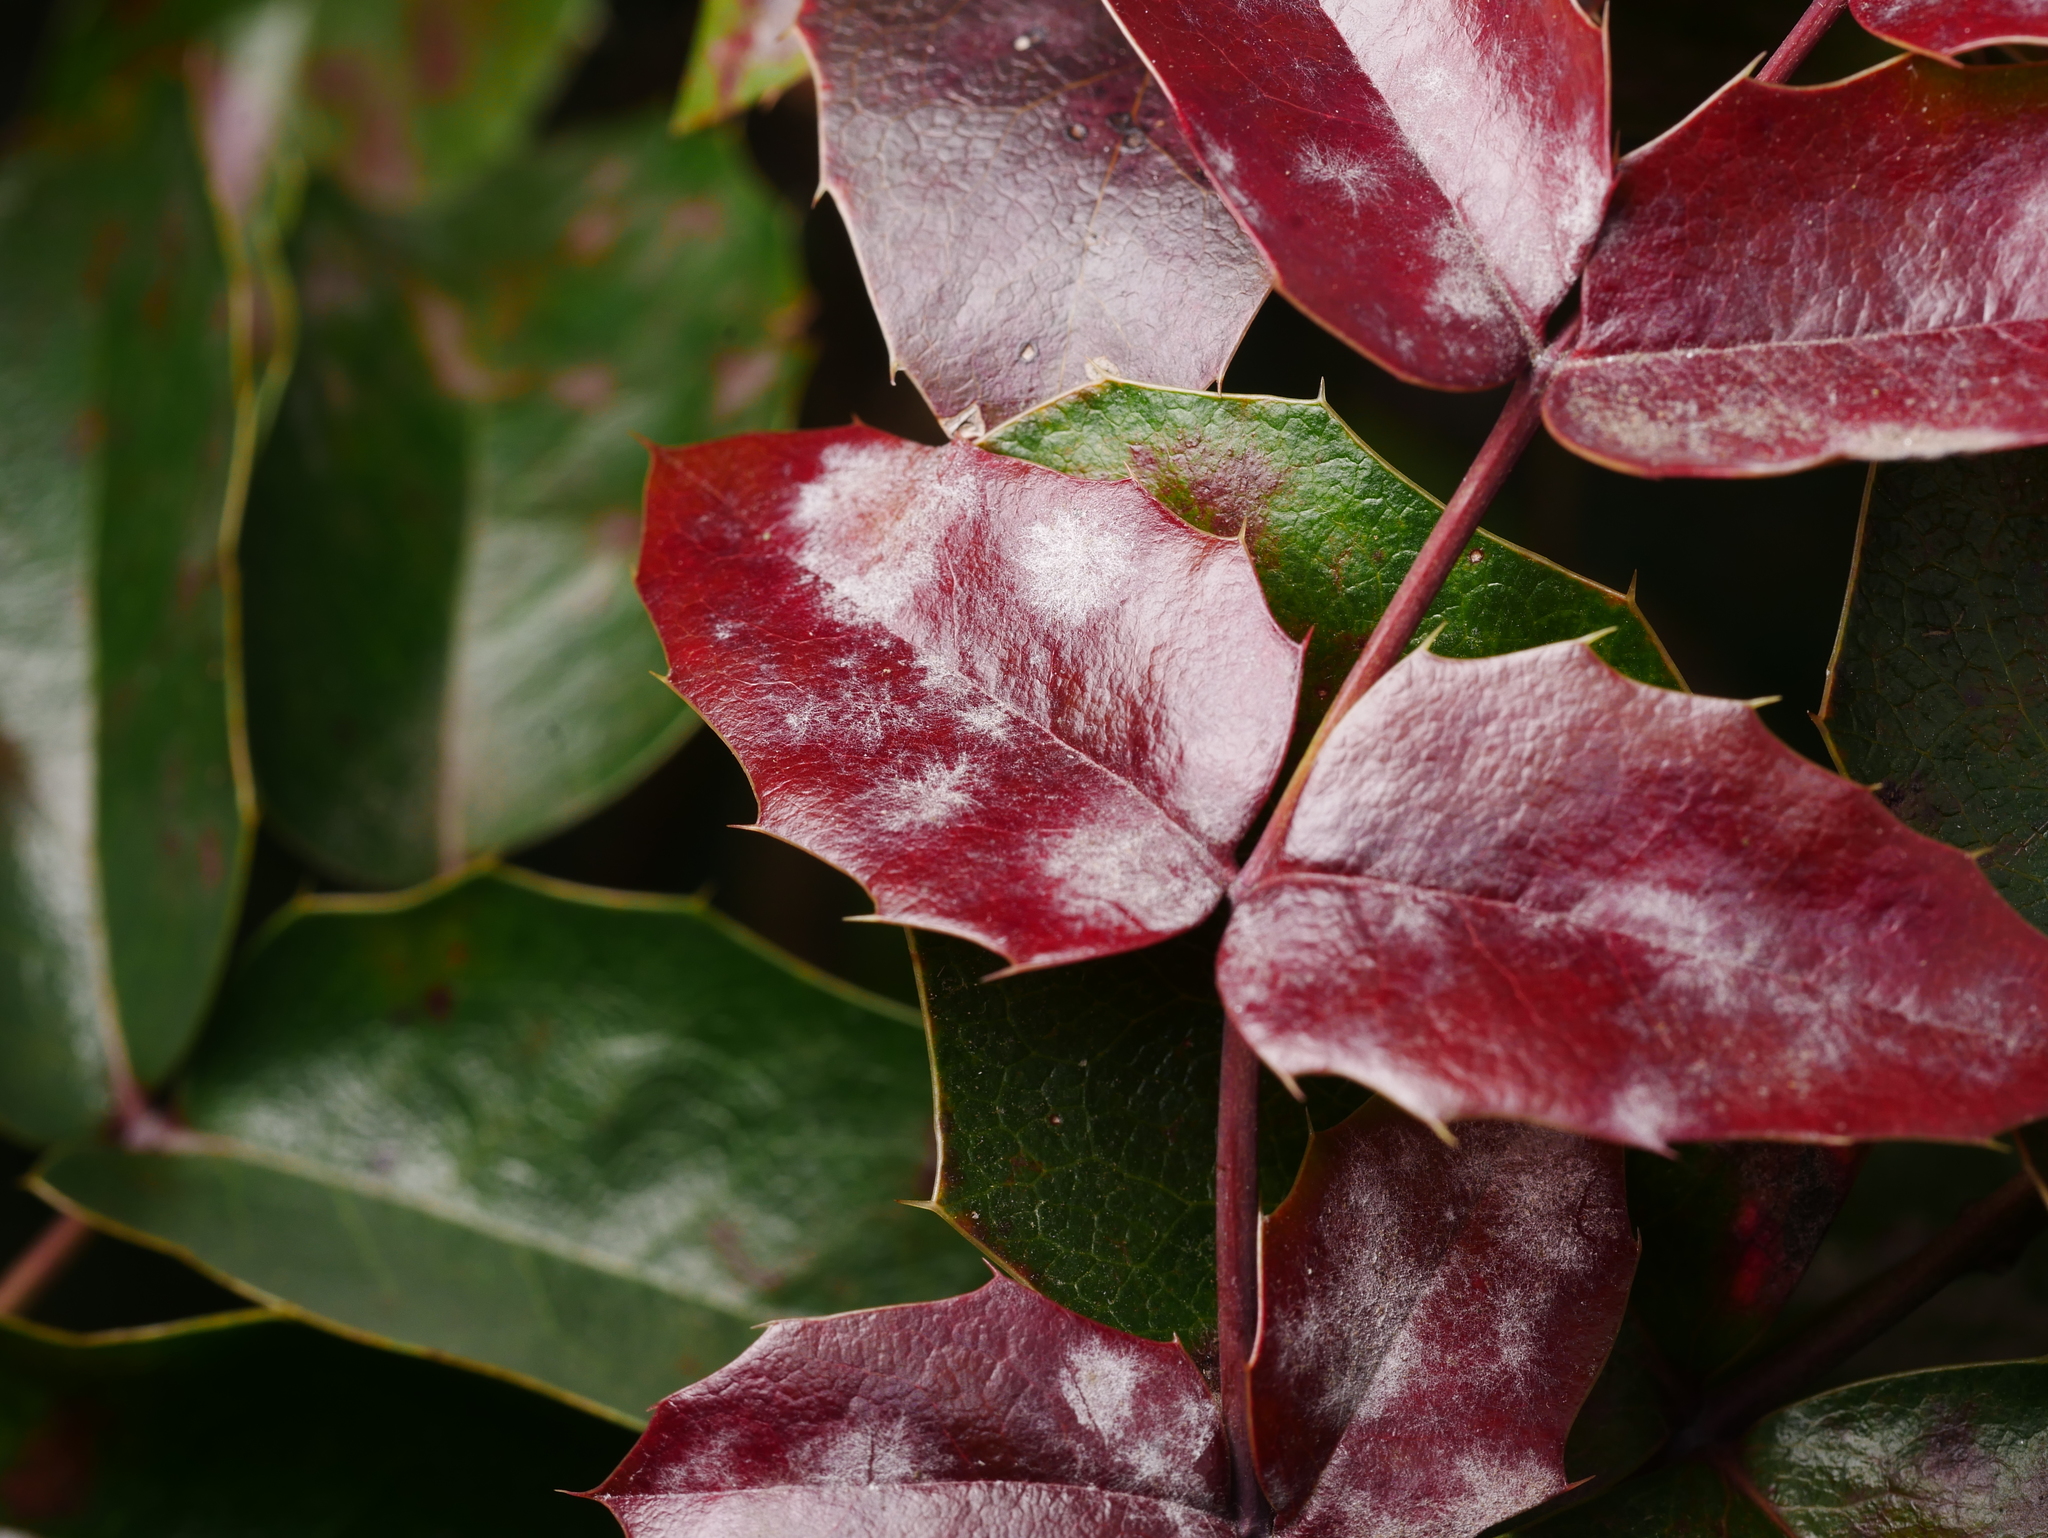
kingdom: Fungi
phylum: Ascomycota
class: Leotiomycetes
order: Helotiales
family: Erysiphaceae
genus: Erysiphe
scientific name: Erysiphe berberidis
